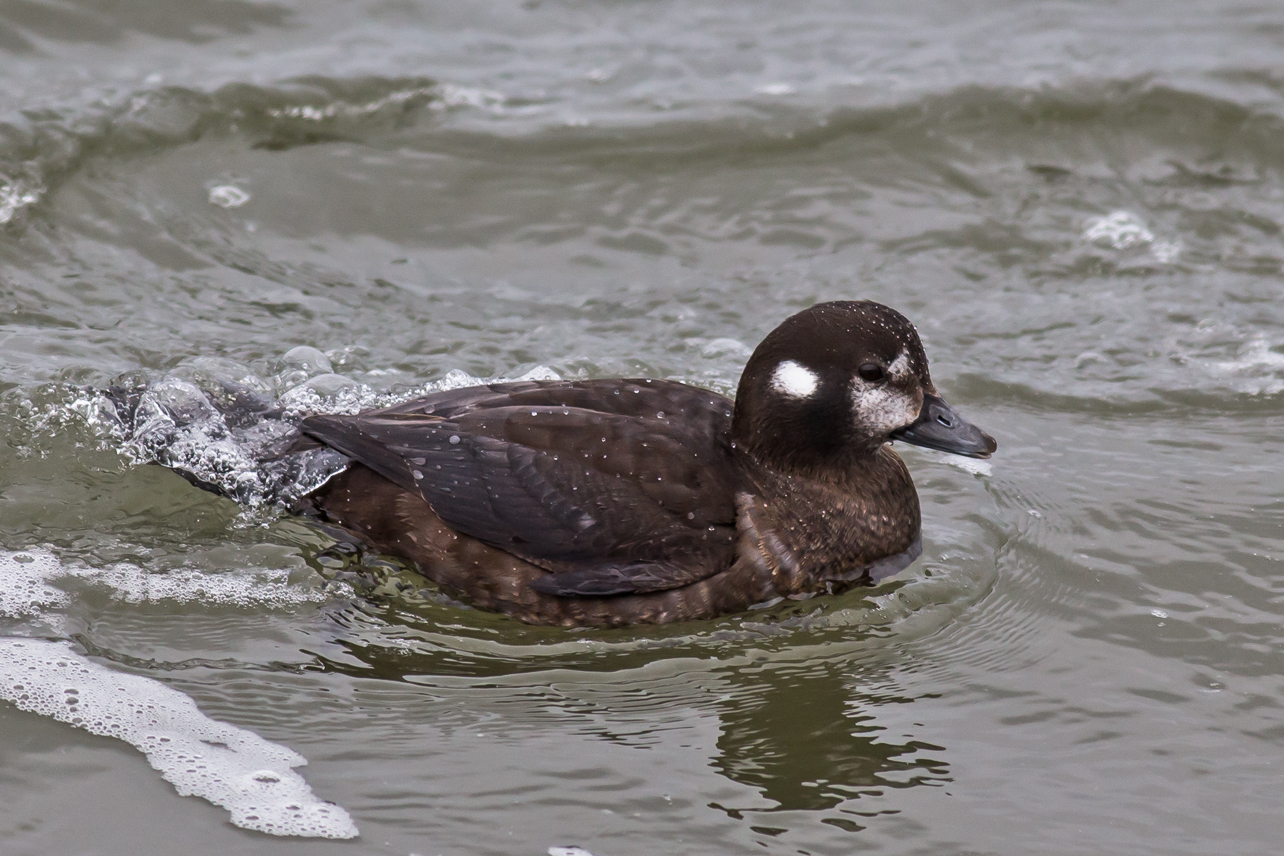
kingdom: Animalia
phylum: Chordata
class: Aves
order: Anseriformes
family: Anatidae
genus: Histrionicus
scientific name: Histrionicus histrionicus
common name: Harlequin duck
